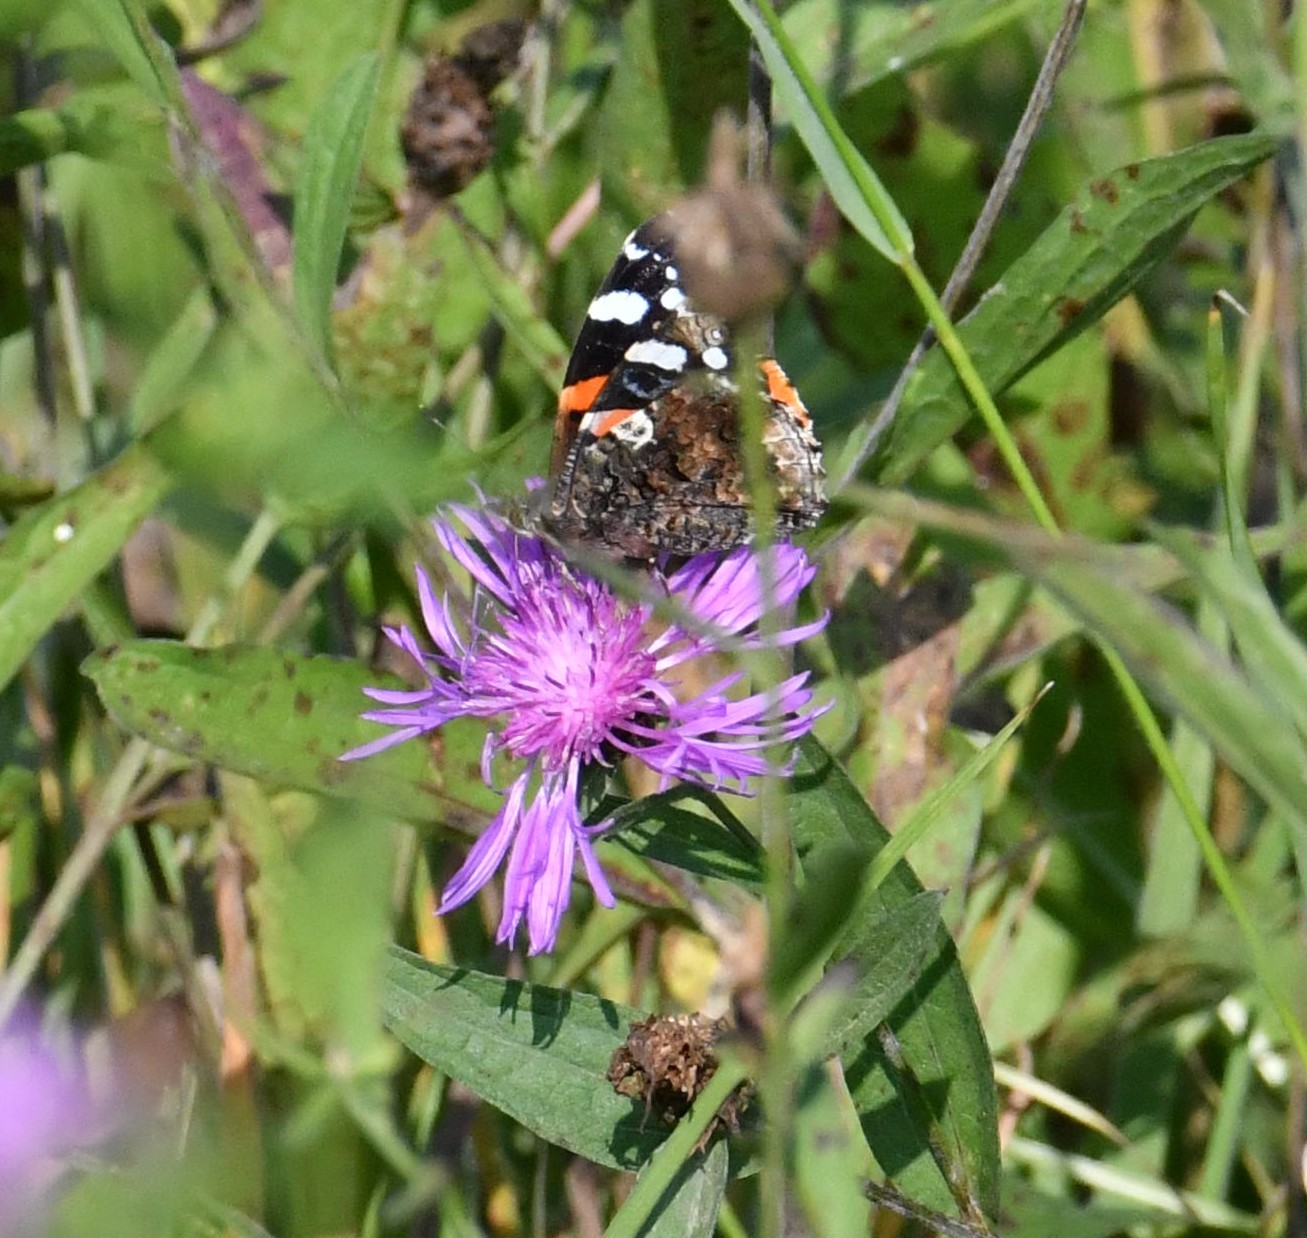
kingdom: Animalia
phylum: Arthropoda
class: Insecta
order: Lepidoptera
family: Nymphalidae
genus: Vanessa
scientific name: Vanessa atalanta
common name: Red admiral
